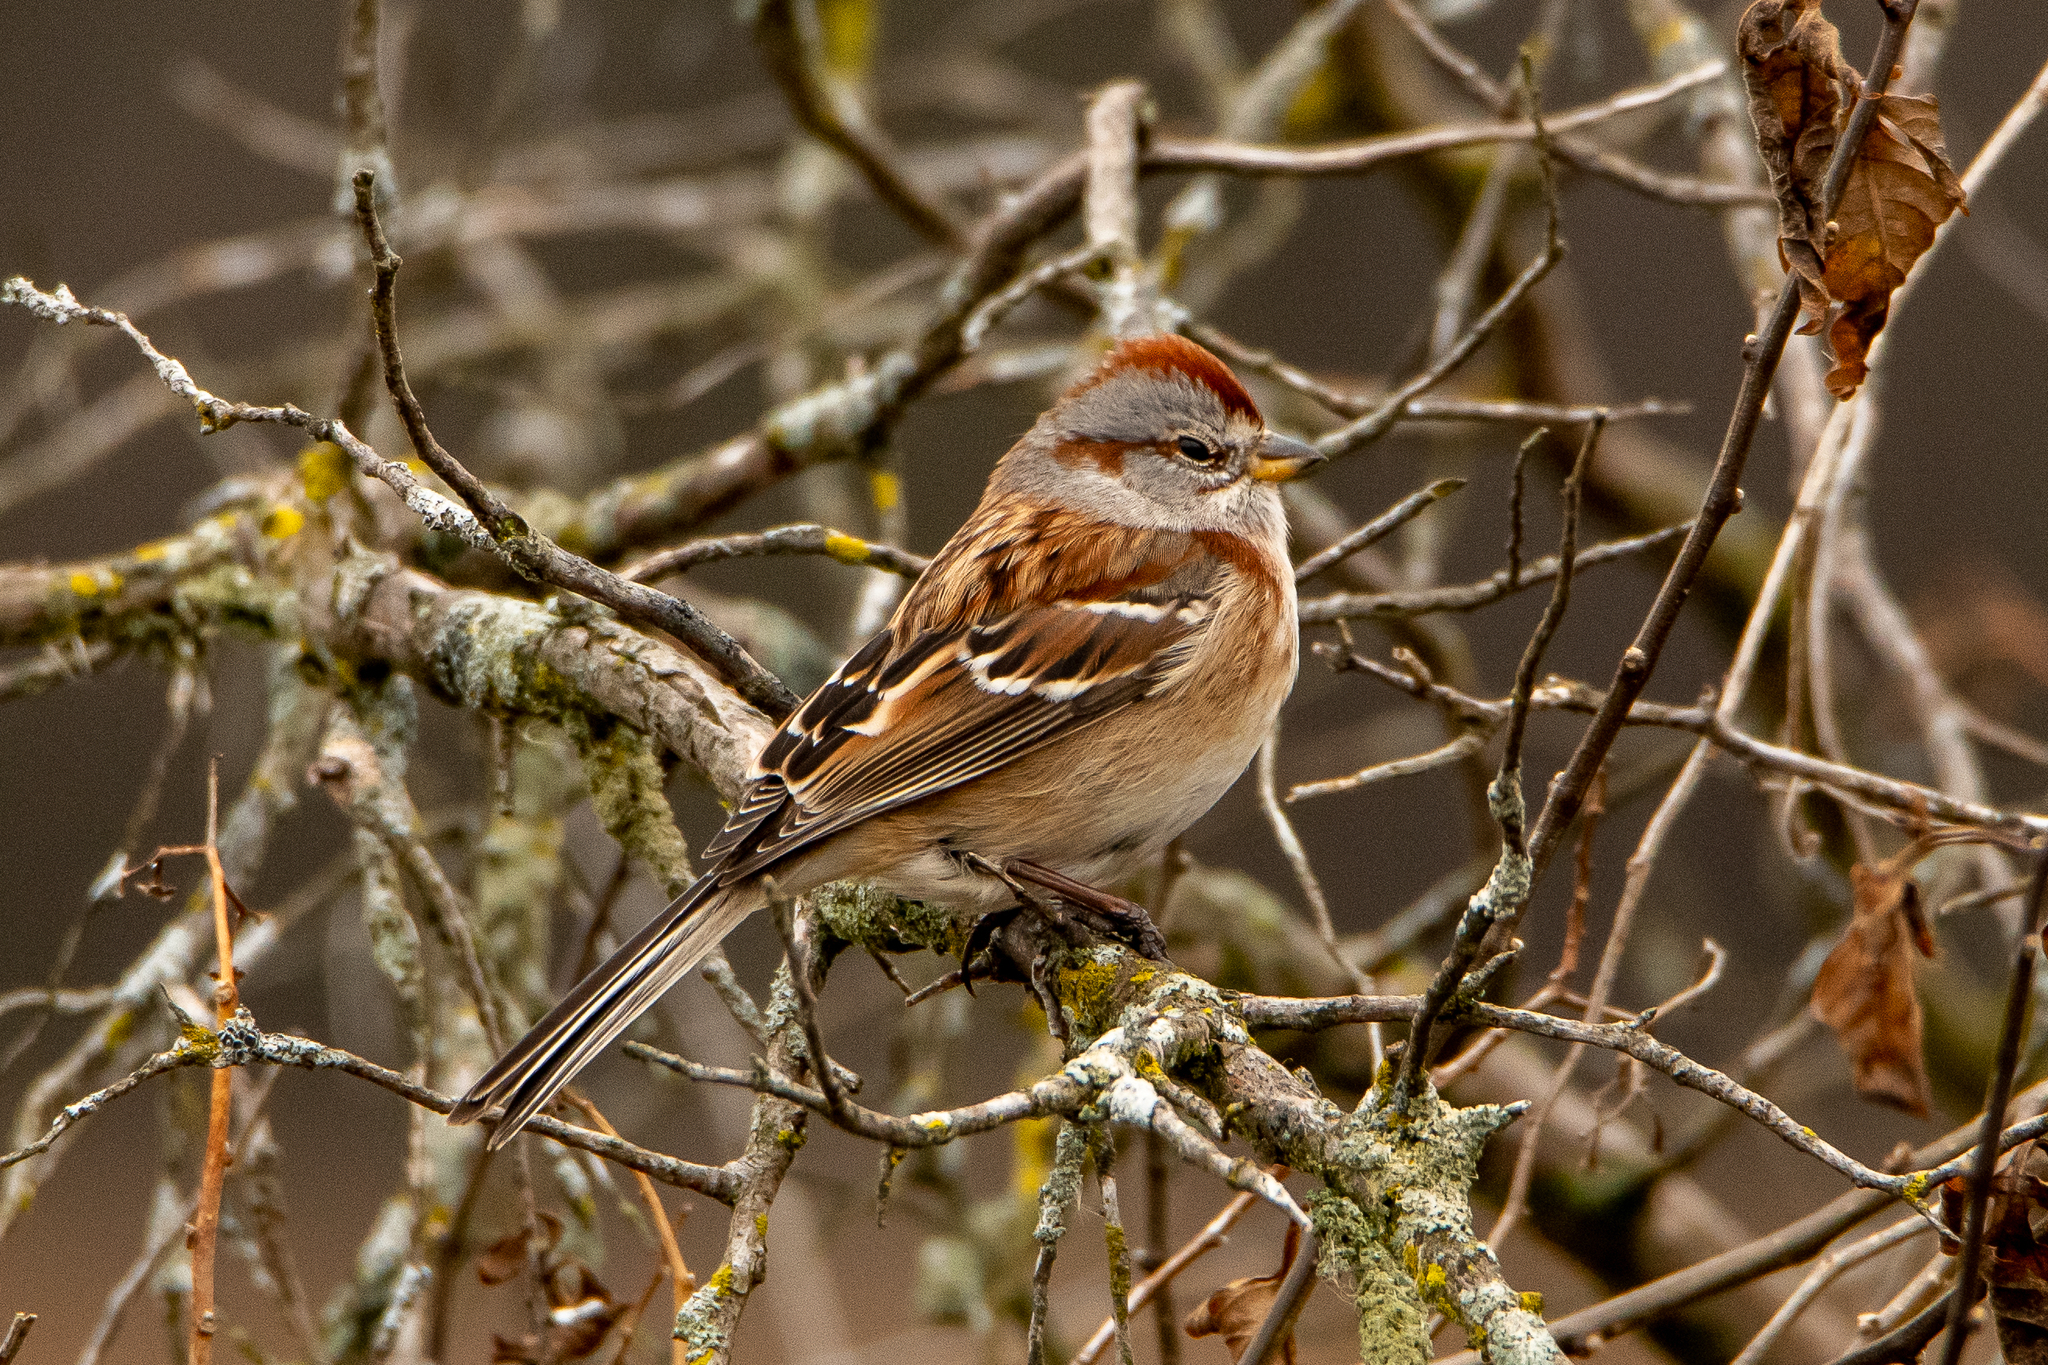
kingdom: Animalia
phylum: Chordata
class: Aves
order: Passeriformes
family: Passerellidae
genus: Spizelloides
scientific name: Spizelloides arborea
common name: American tree sparrow
